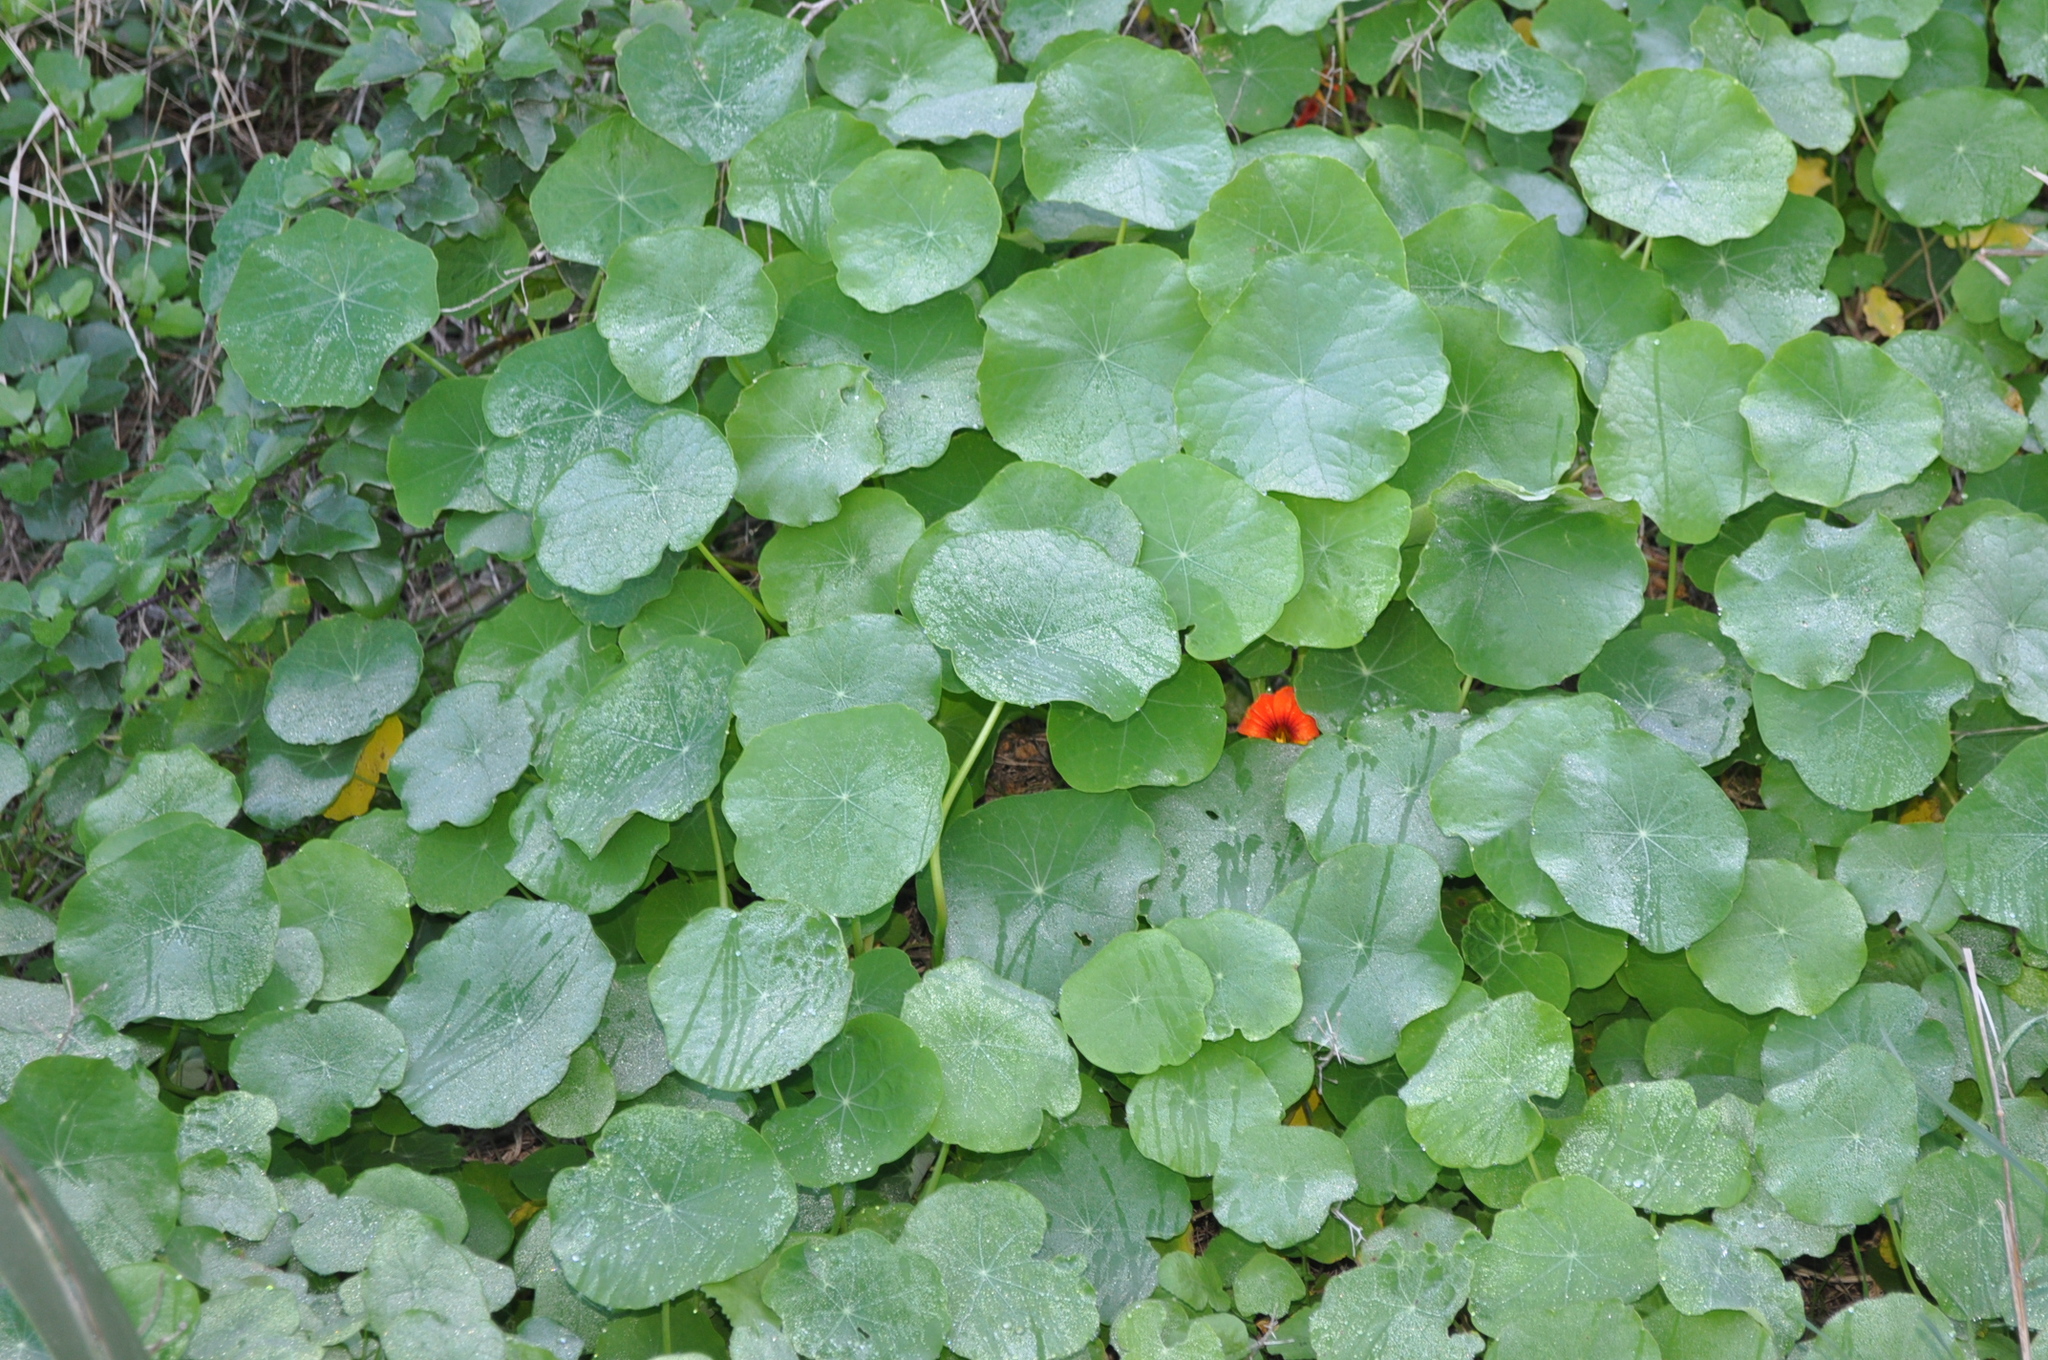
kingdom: Plantae
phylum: Tracheophyta
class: Magnoliopsida
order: Brassicales
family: Tropaeolaceae
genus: Tropaeolum
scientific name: Tropaeolum majus
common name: Nasturtium
